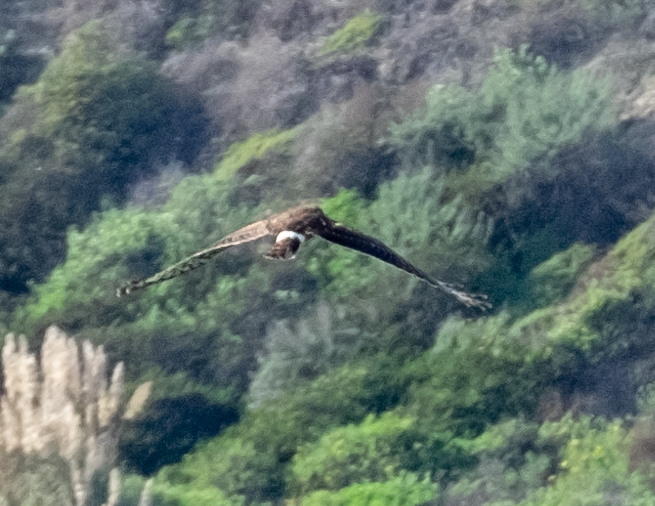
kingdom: Animalia
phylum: Chordata
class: Aves
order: Accipitriformes
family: Accipitridae
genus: Circus
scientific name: Circus cyaneus
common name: Hen harrier
